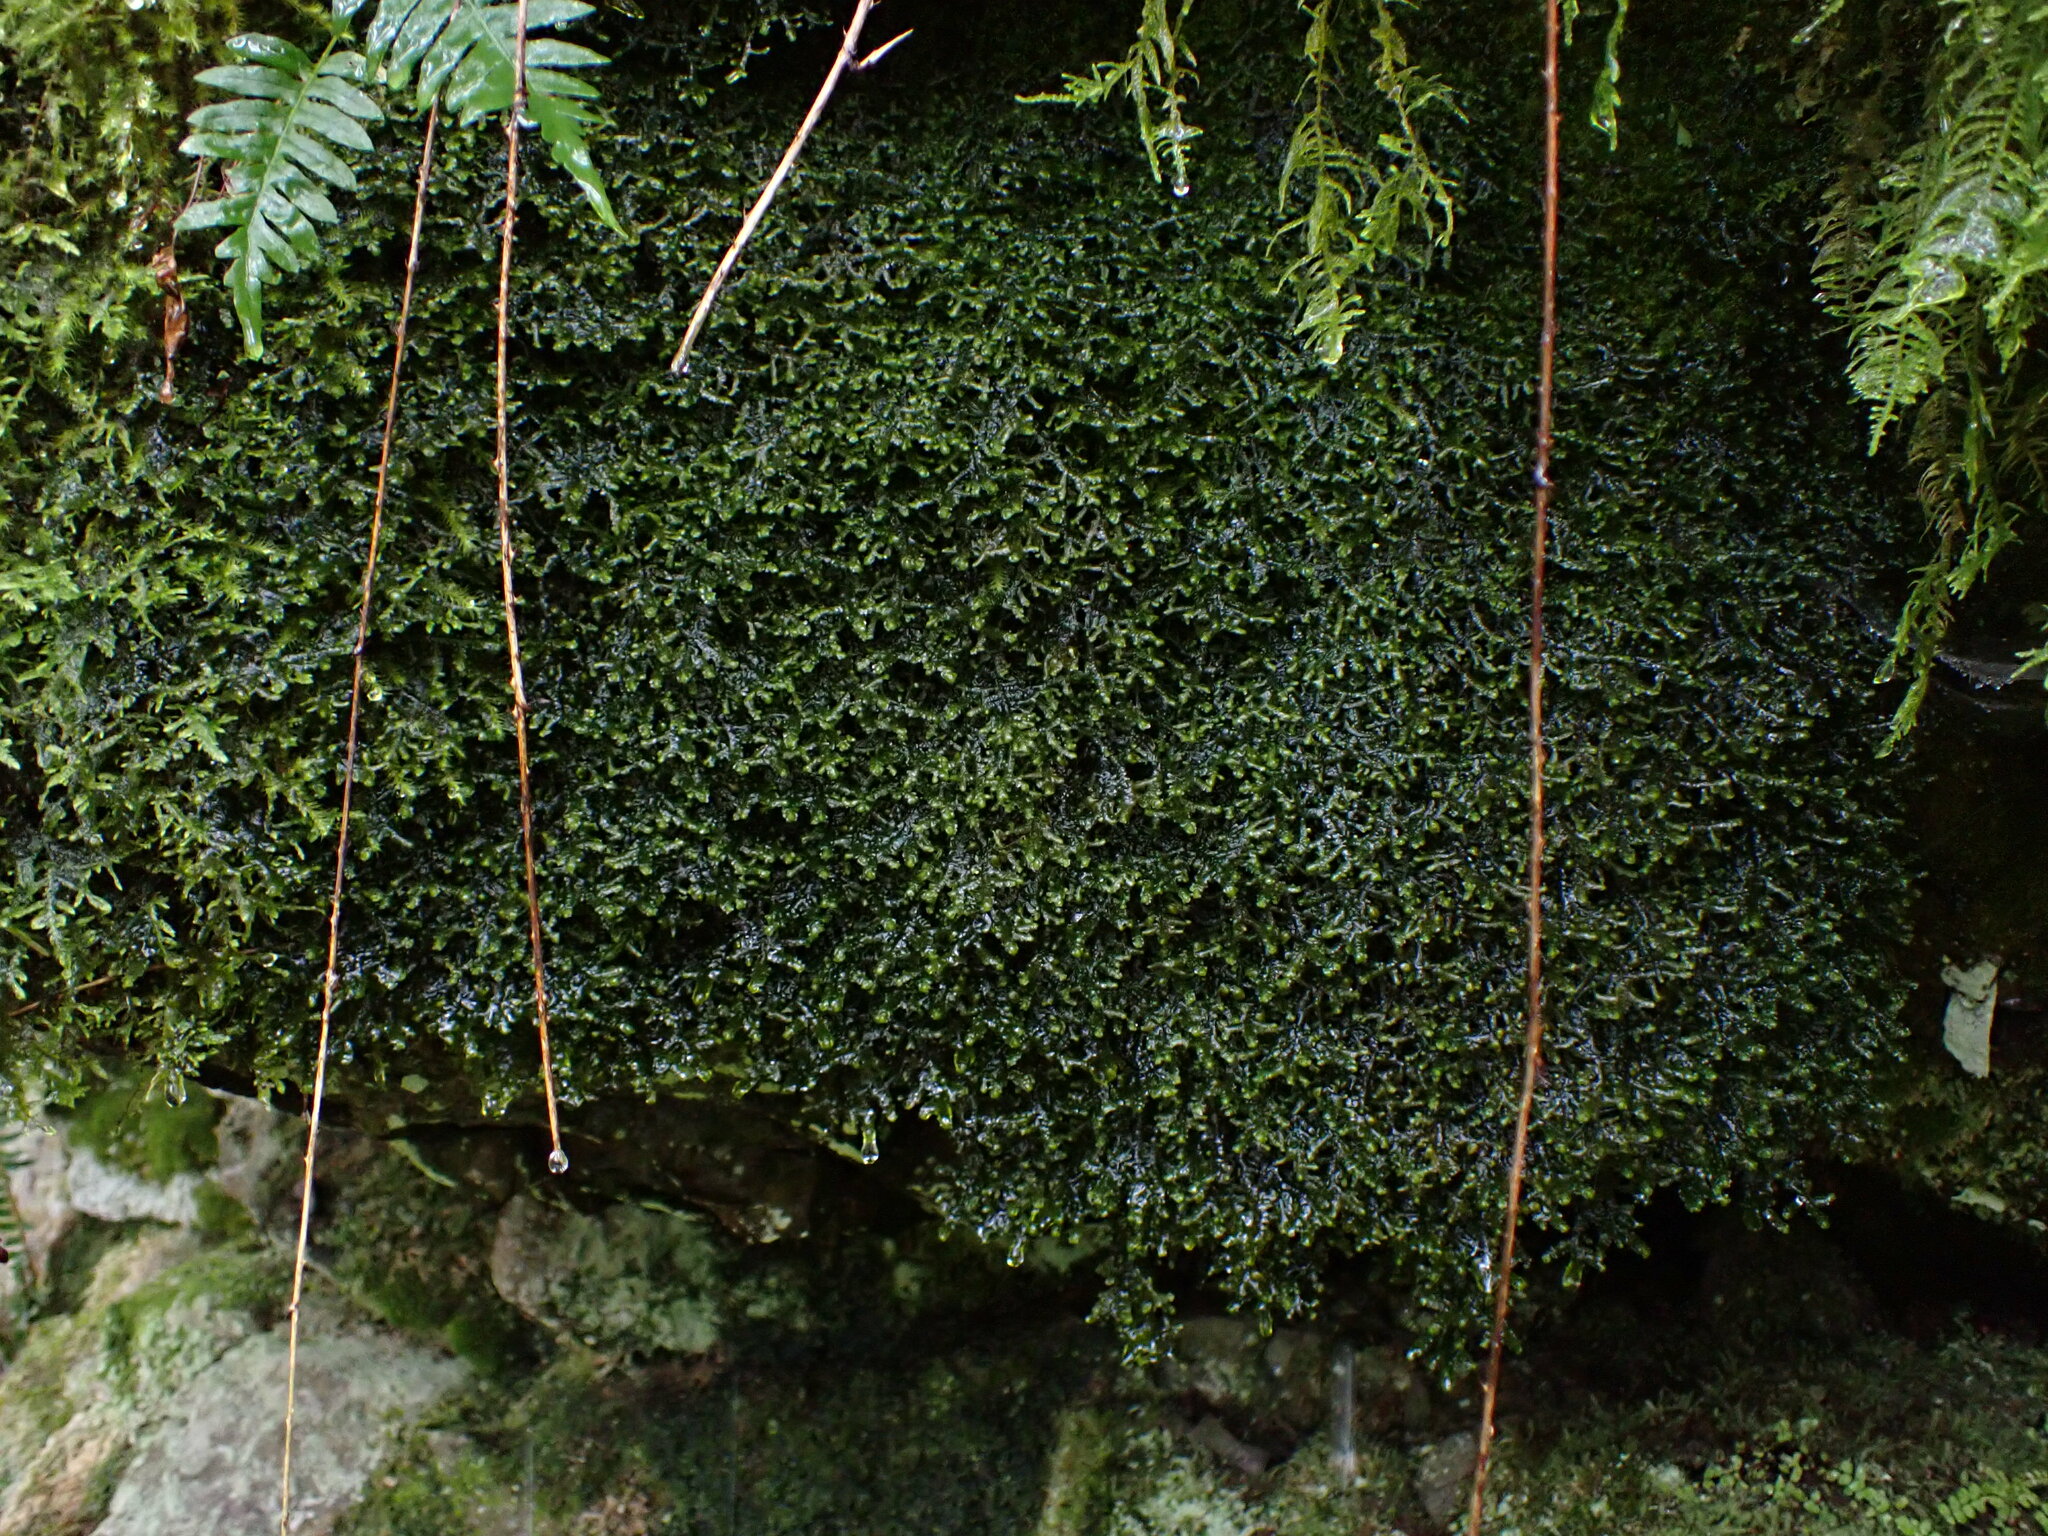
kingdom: Plantae
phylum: Marchantiophyta
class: Jungermanniopsida
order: Porellales
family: Porellaceae
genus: Porella
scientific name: Porella cordaeana
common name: Cliff scalewort
